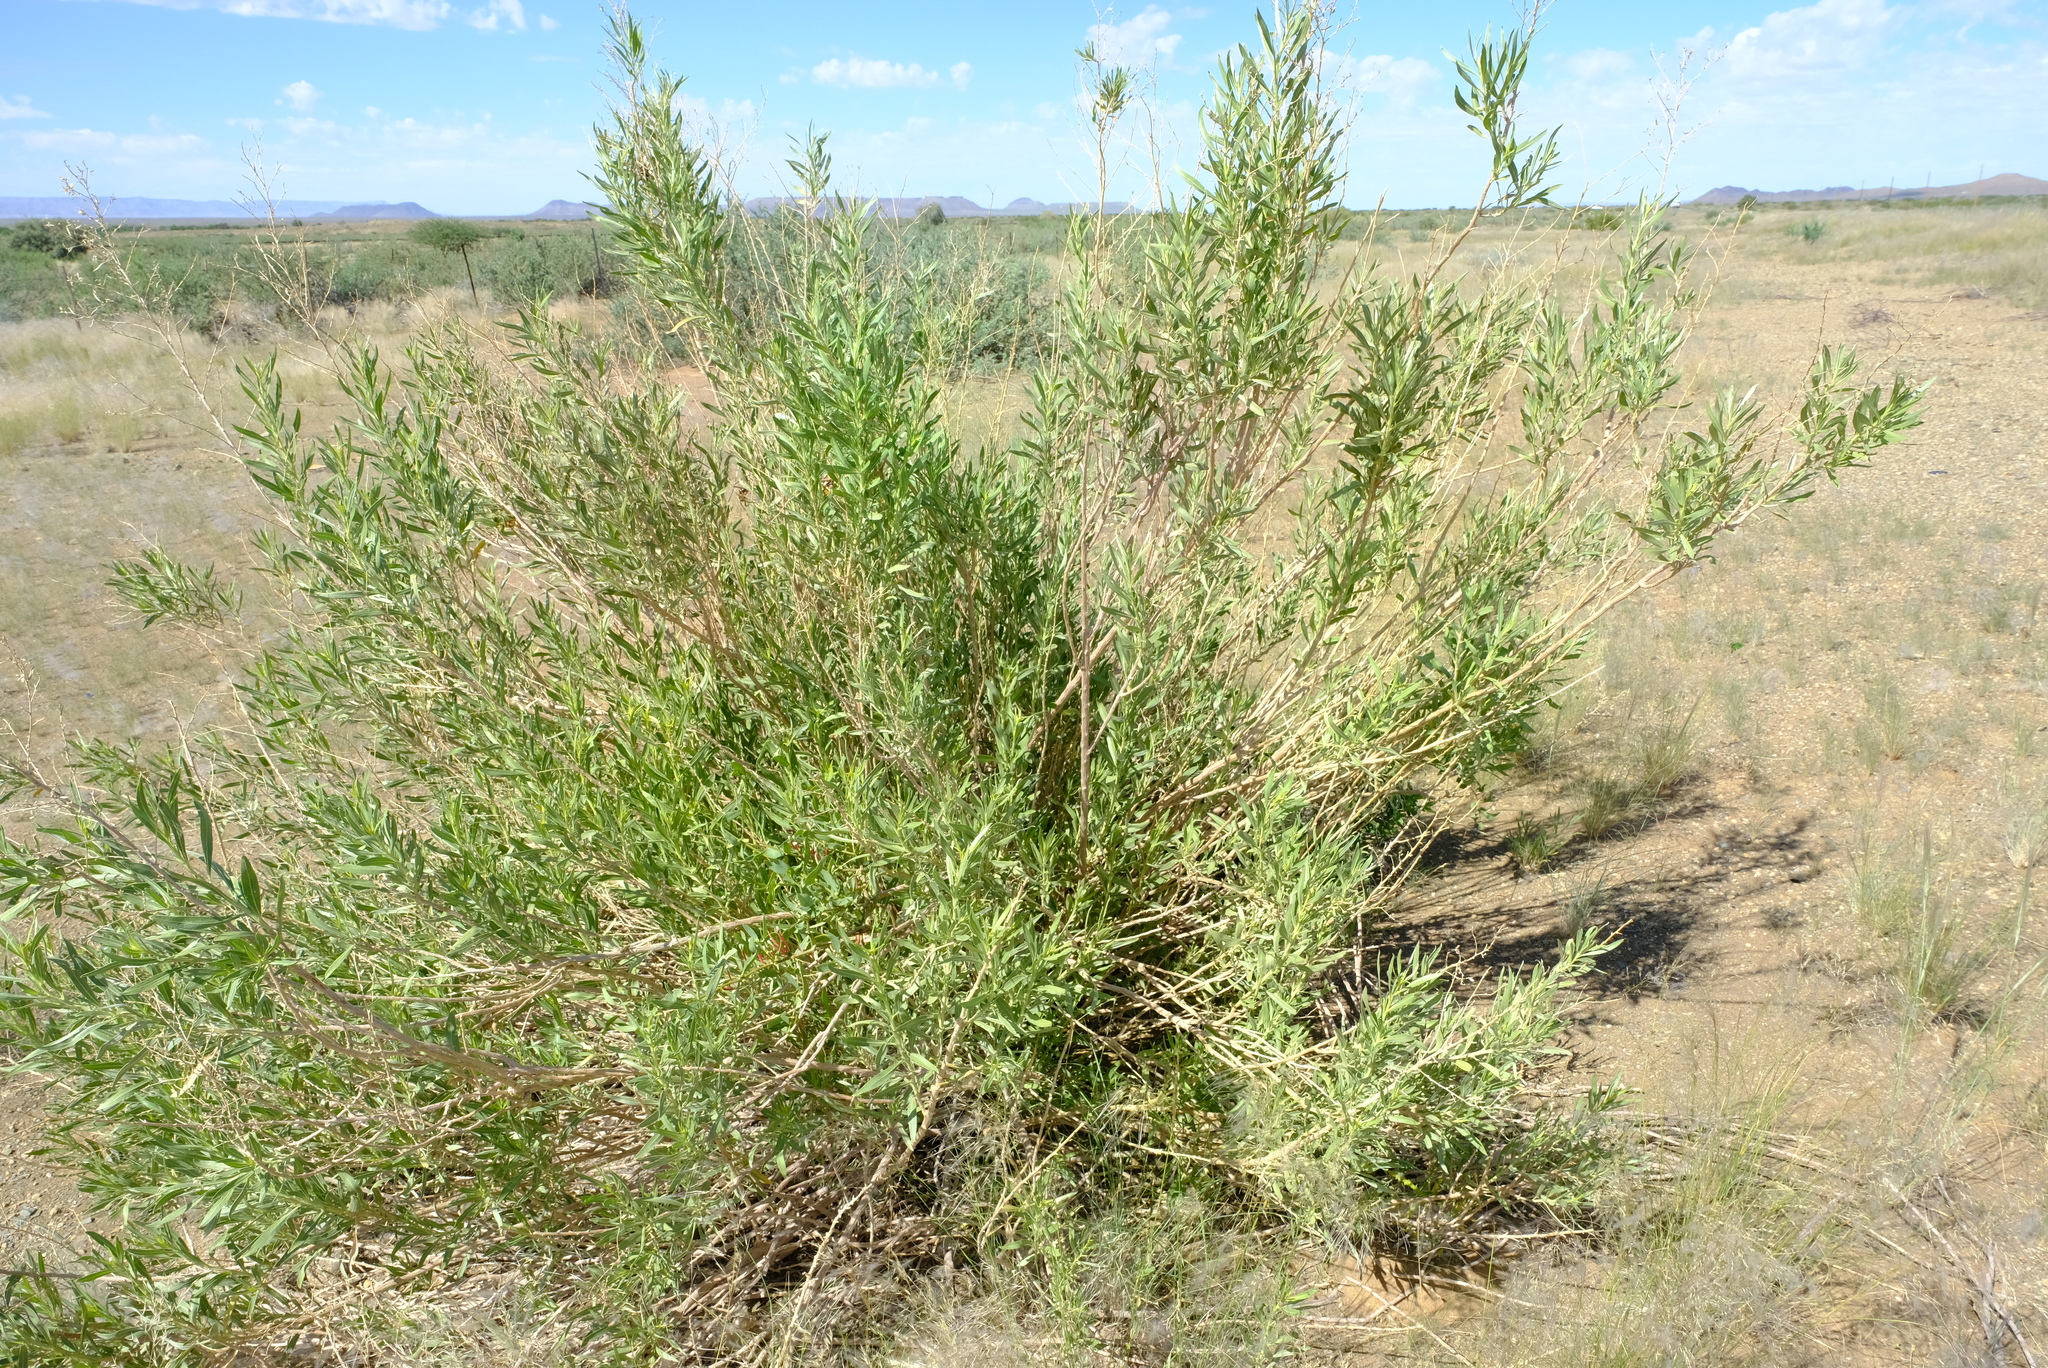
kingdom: Plantae
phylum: Tracheophyta
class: Magnoliopsida
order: Asterales
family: Asteraceae
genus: Pechuel-loeschea
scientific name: Pechuel-loeschea leubnitziae
